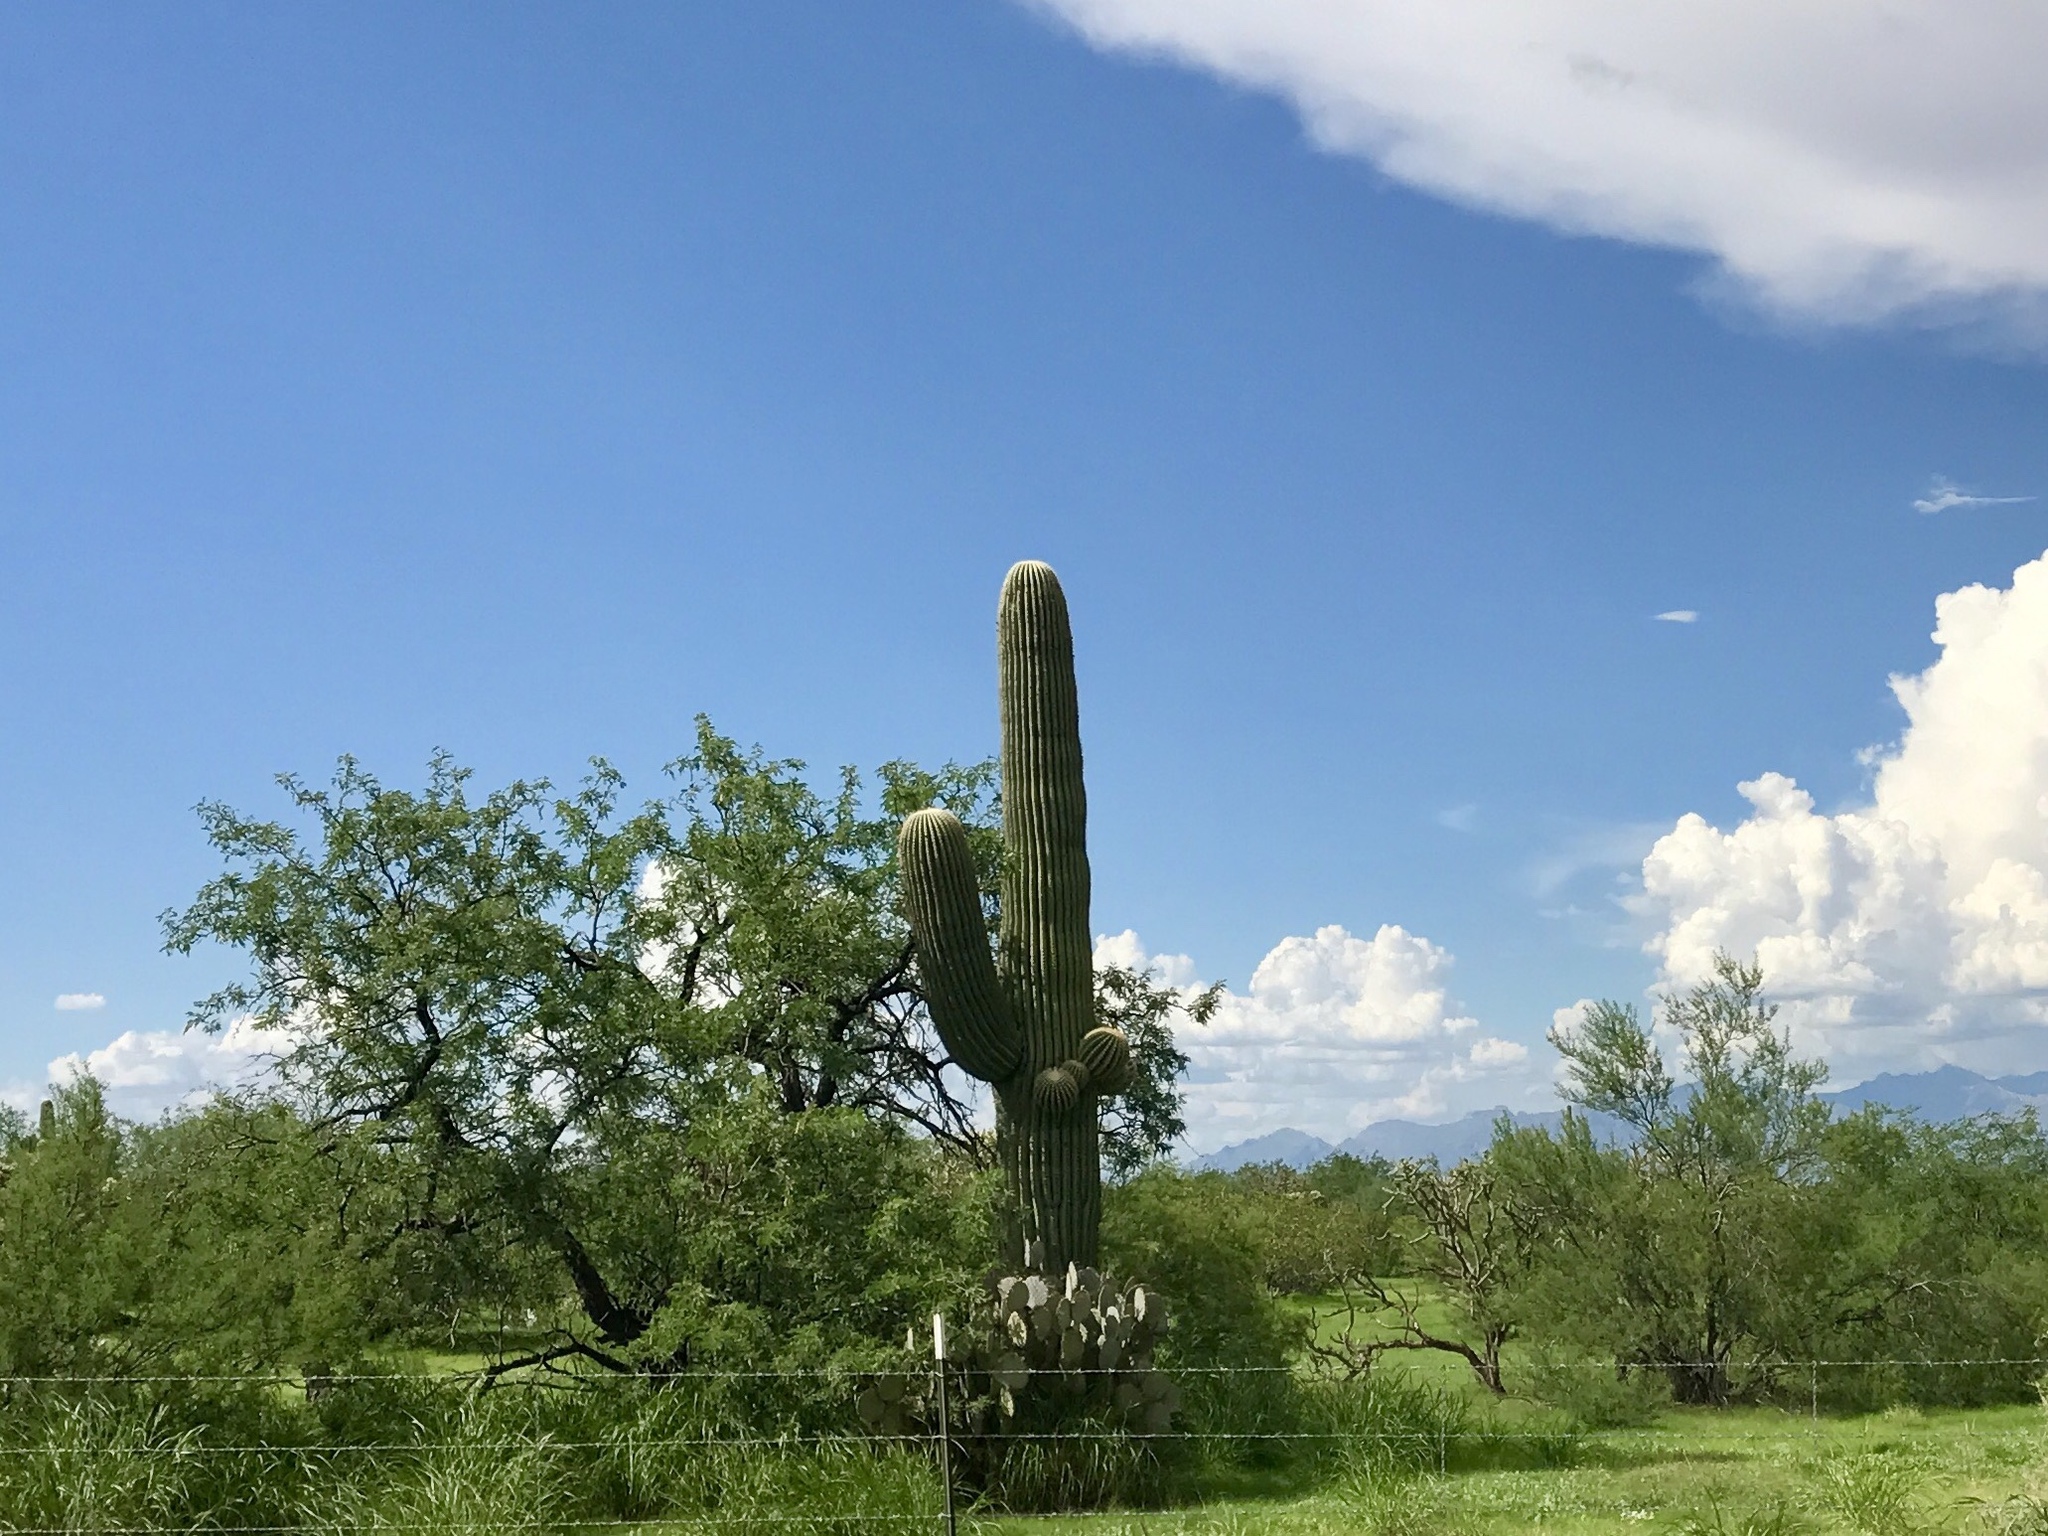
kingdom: Plantae
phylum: Tracheophyta
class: Magnoliopsida
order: Caryophyllales
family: Cactaceae
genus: Carnegiea
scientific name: Carnegiea gigantea
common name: Saguaro
